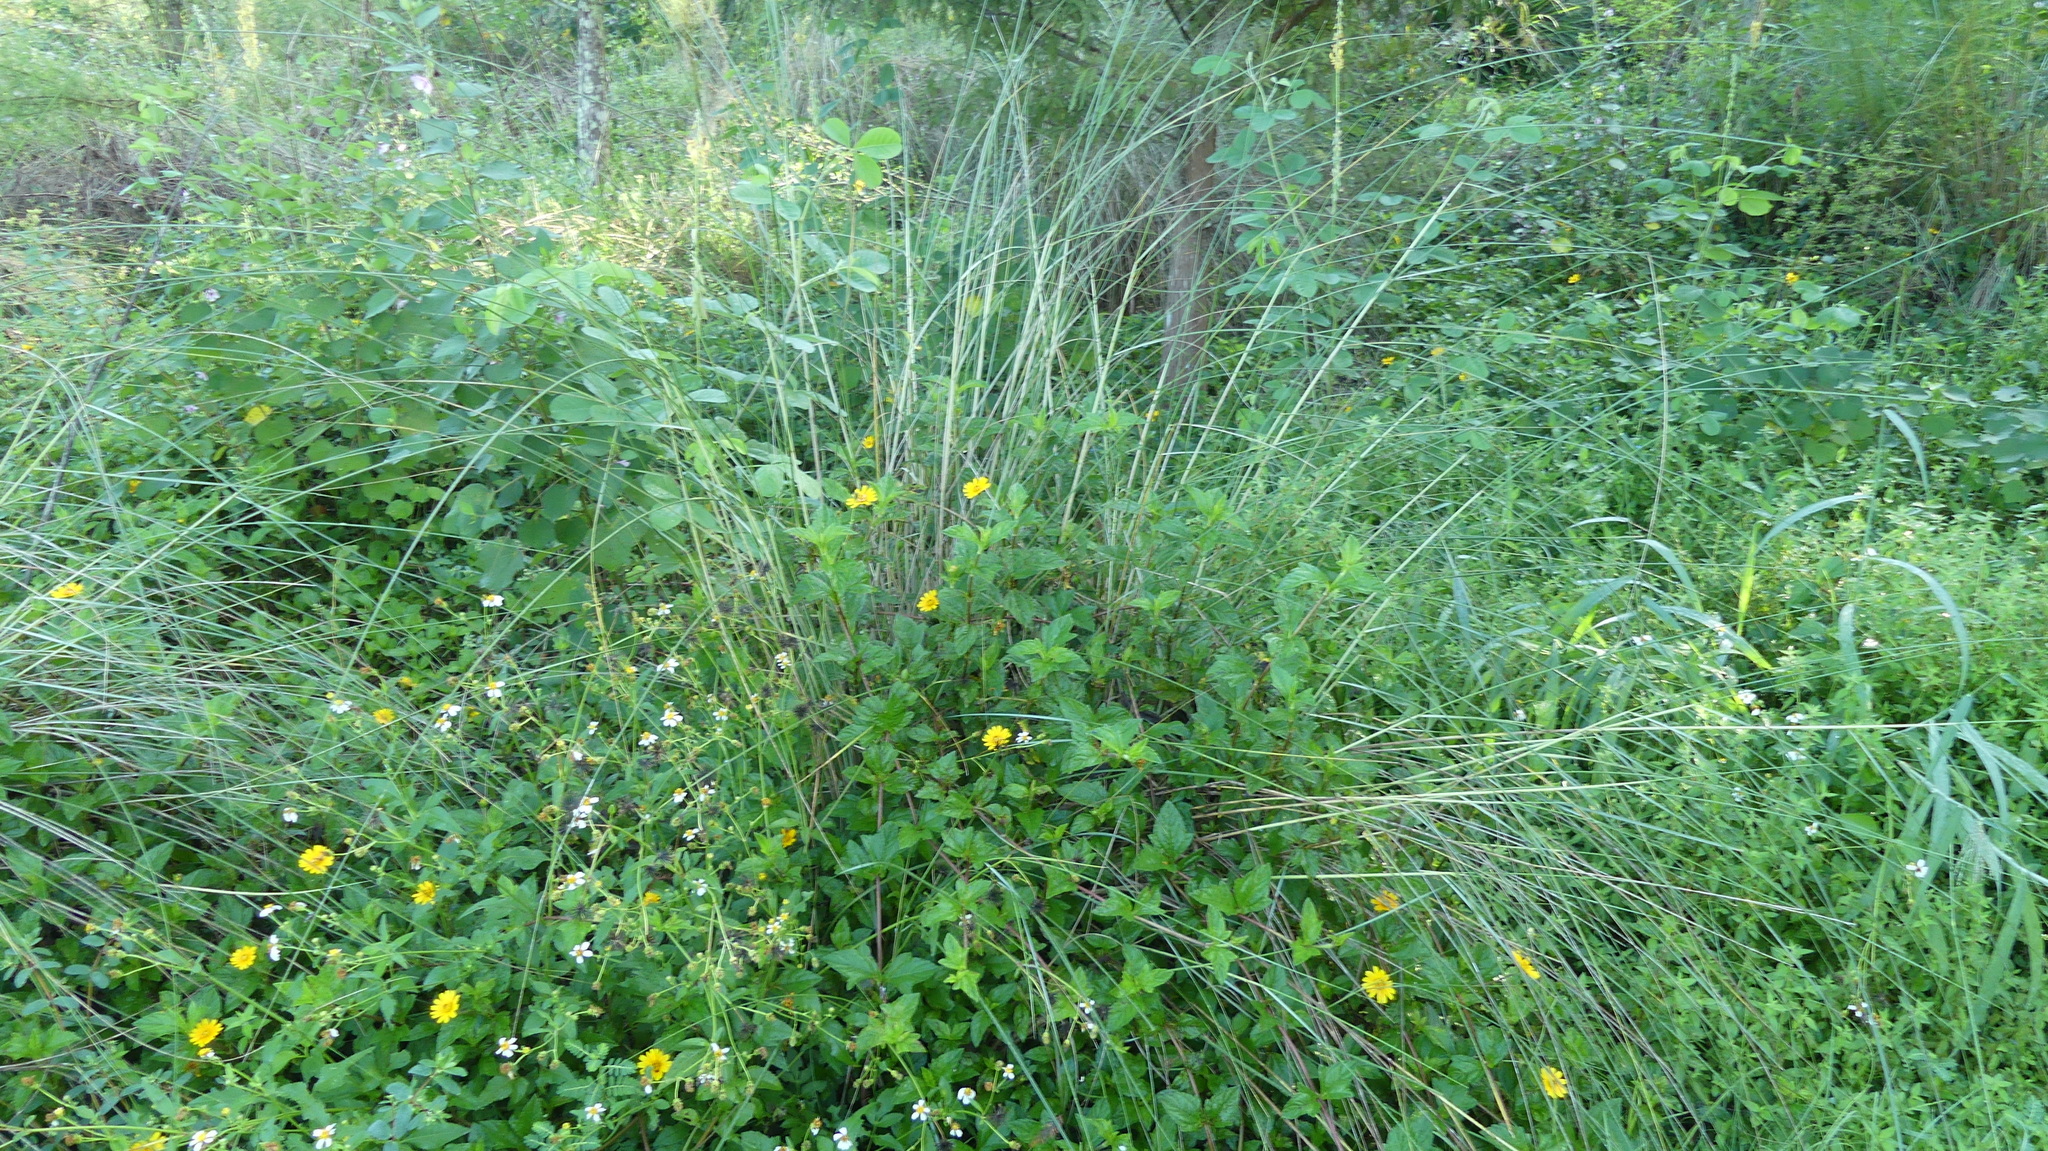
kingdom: Plantae
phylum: Tracheophyta
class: Magnoliopsida
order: Asterales
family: Asteraceae
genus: Sphagneticola
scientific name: Sphagneticola trilobata
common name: Bay biscayne creeping-oxeye
